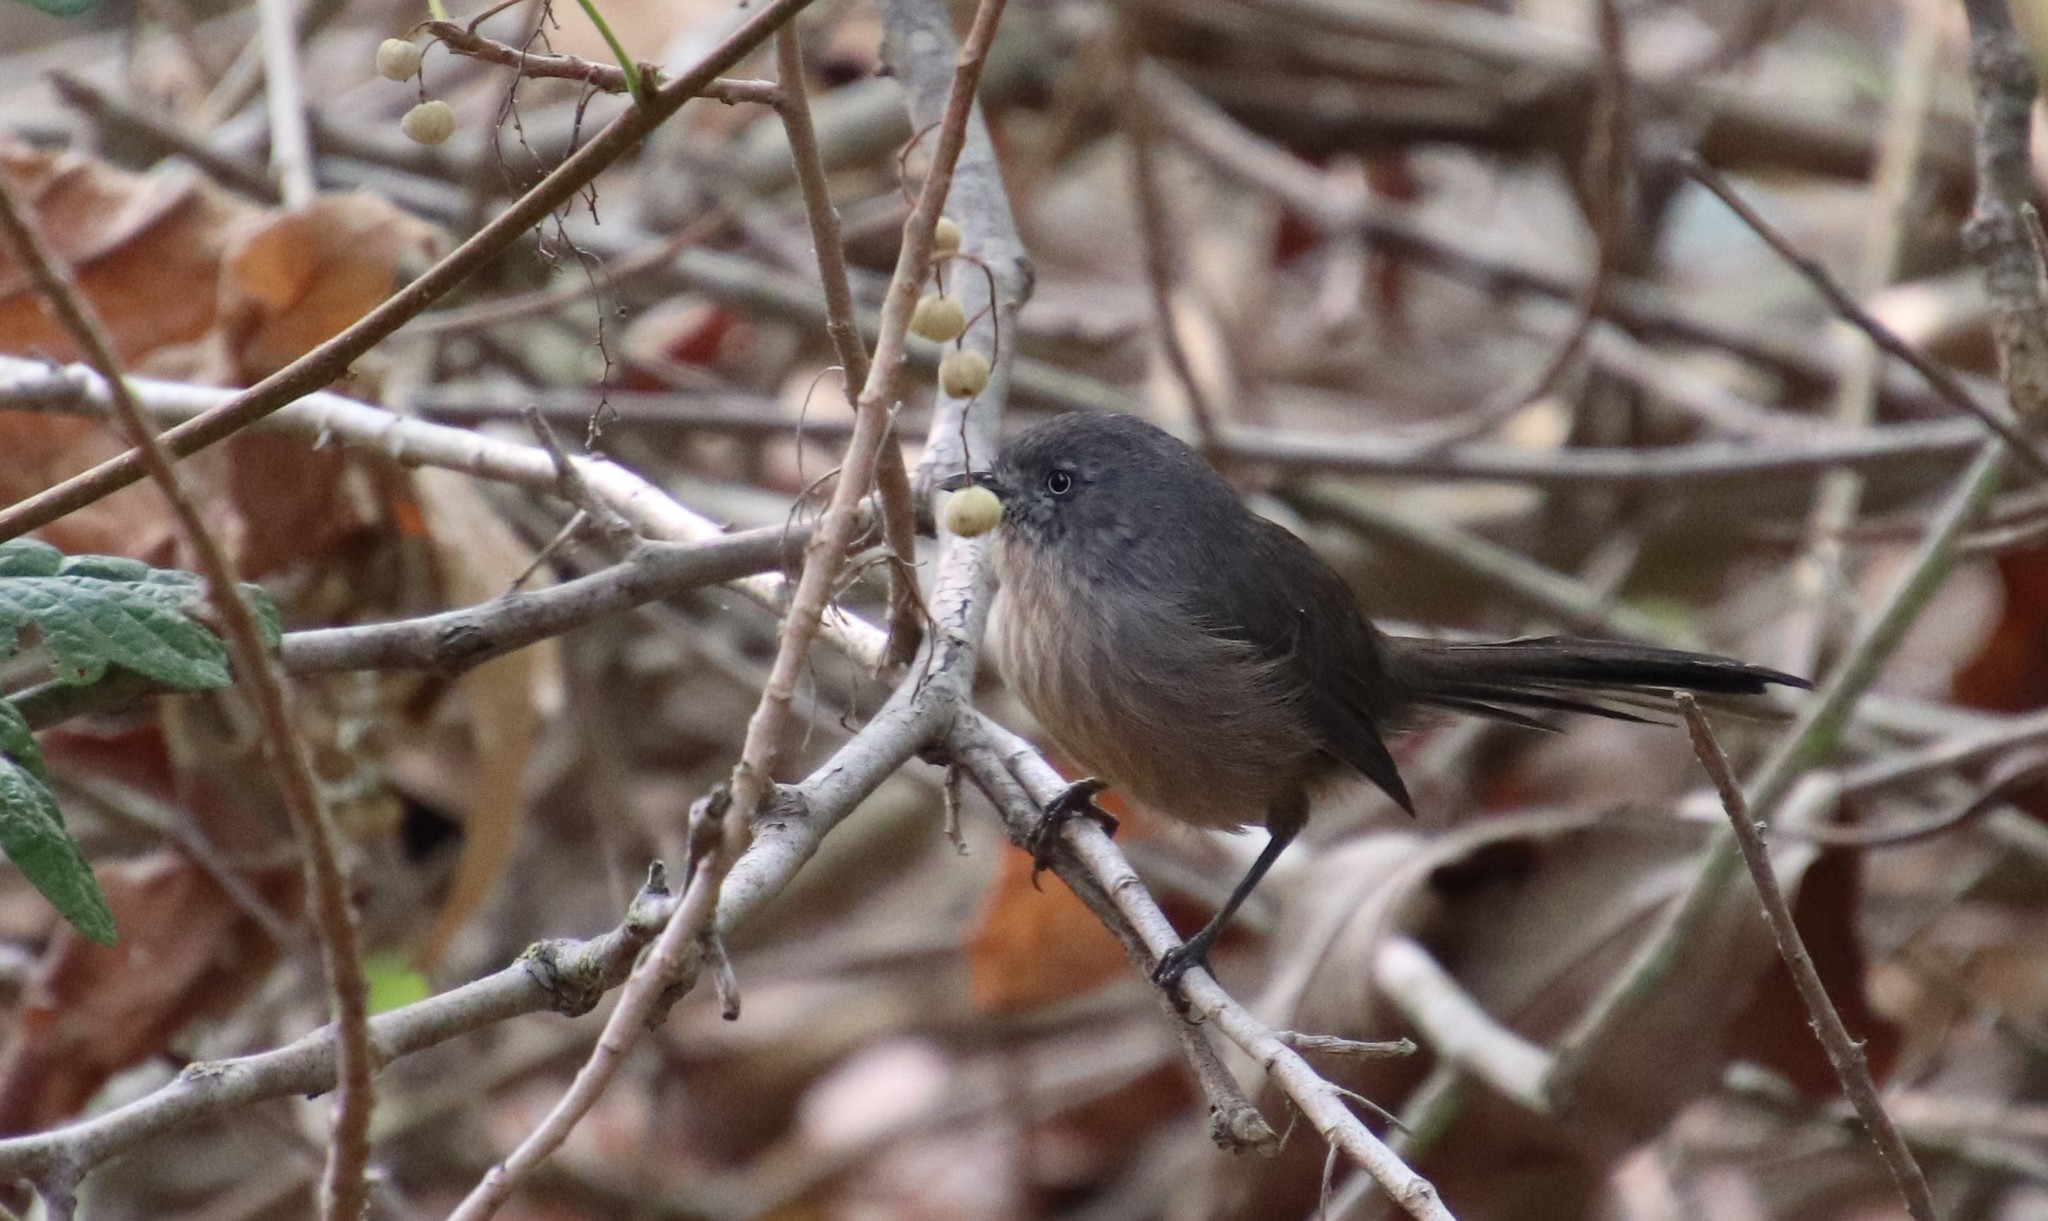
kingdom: Animalia
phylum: Chordata
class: Aves
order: Passeriformes
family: Sylviidae
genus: Chamaea
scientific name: Chamaea fasciata
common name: Wrentit
